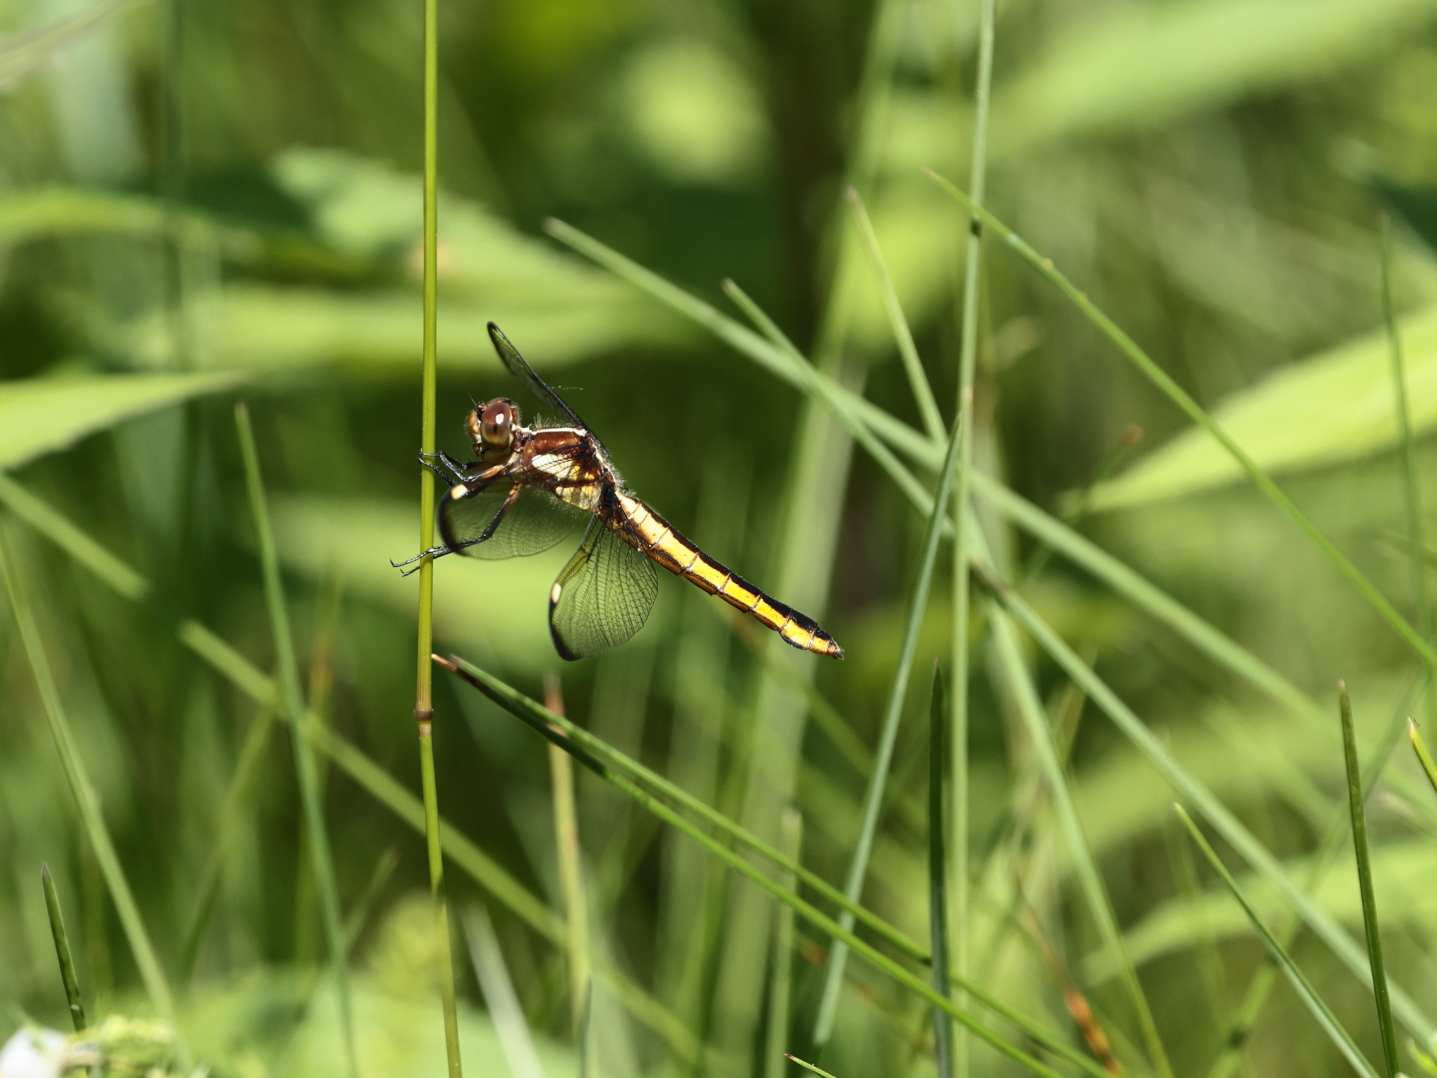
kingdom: Animalia
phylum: Arthropoda
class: Insecta
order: Odonata
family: Libellulidae
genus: Libellula
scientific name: Libellula cyanea
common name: Spangled skimmer
